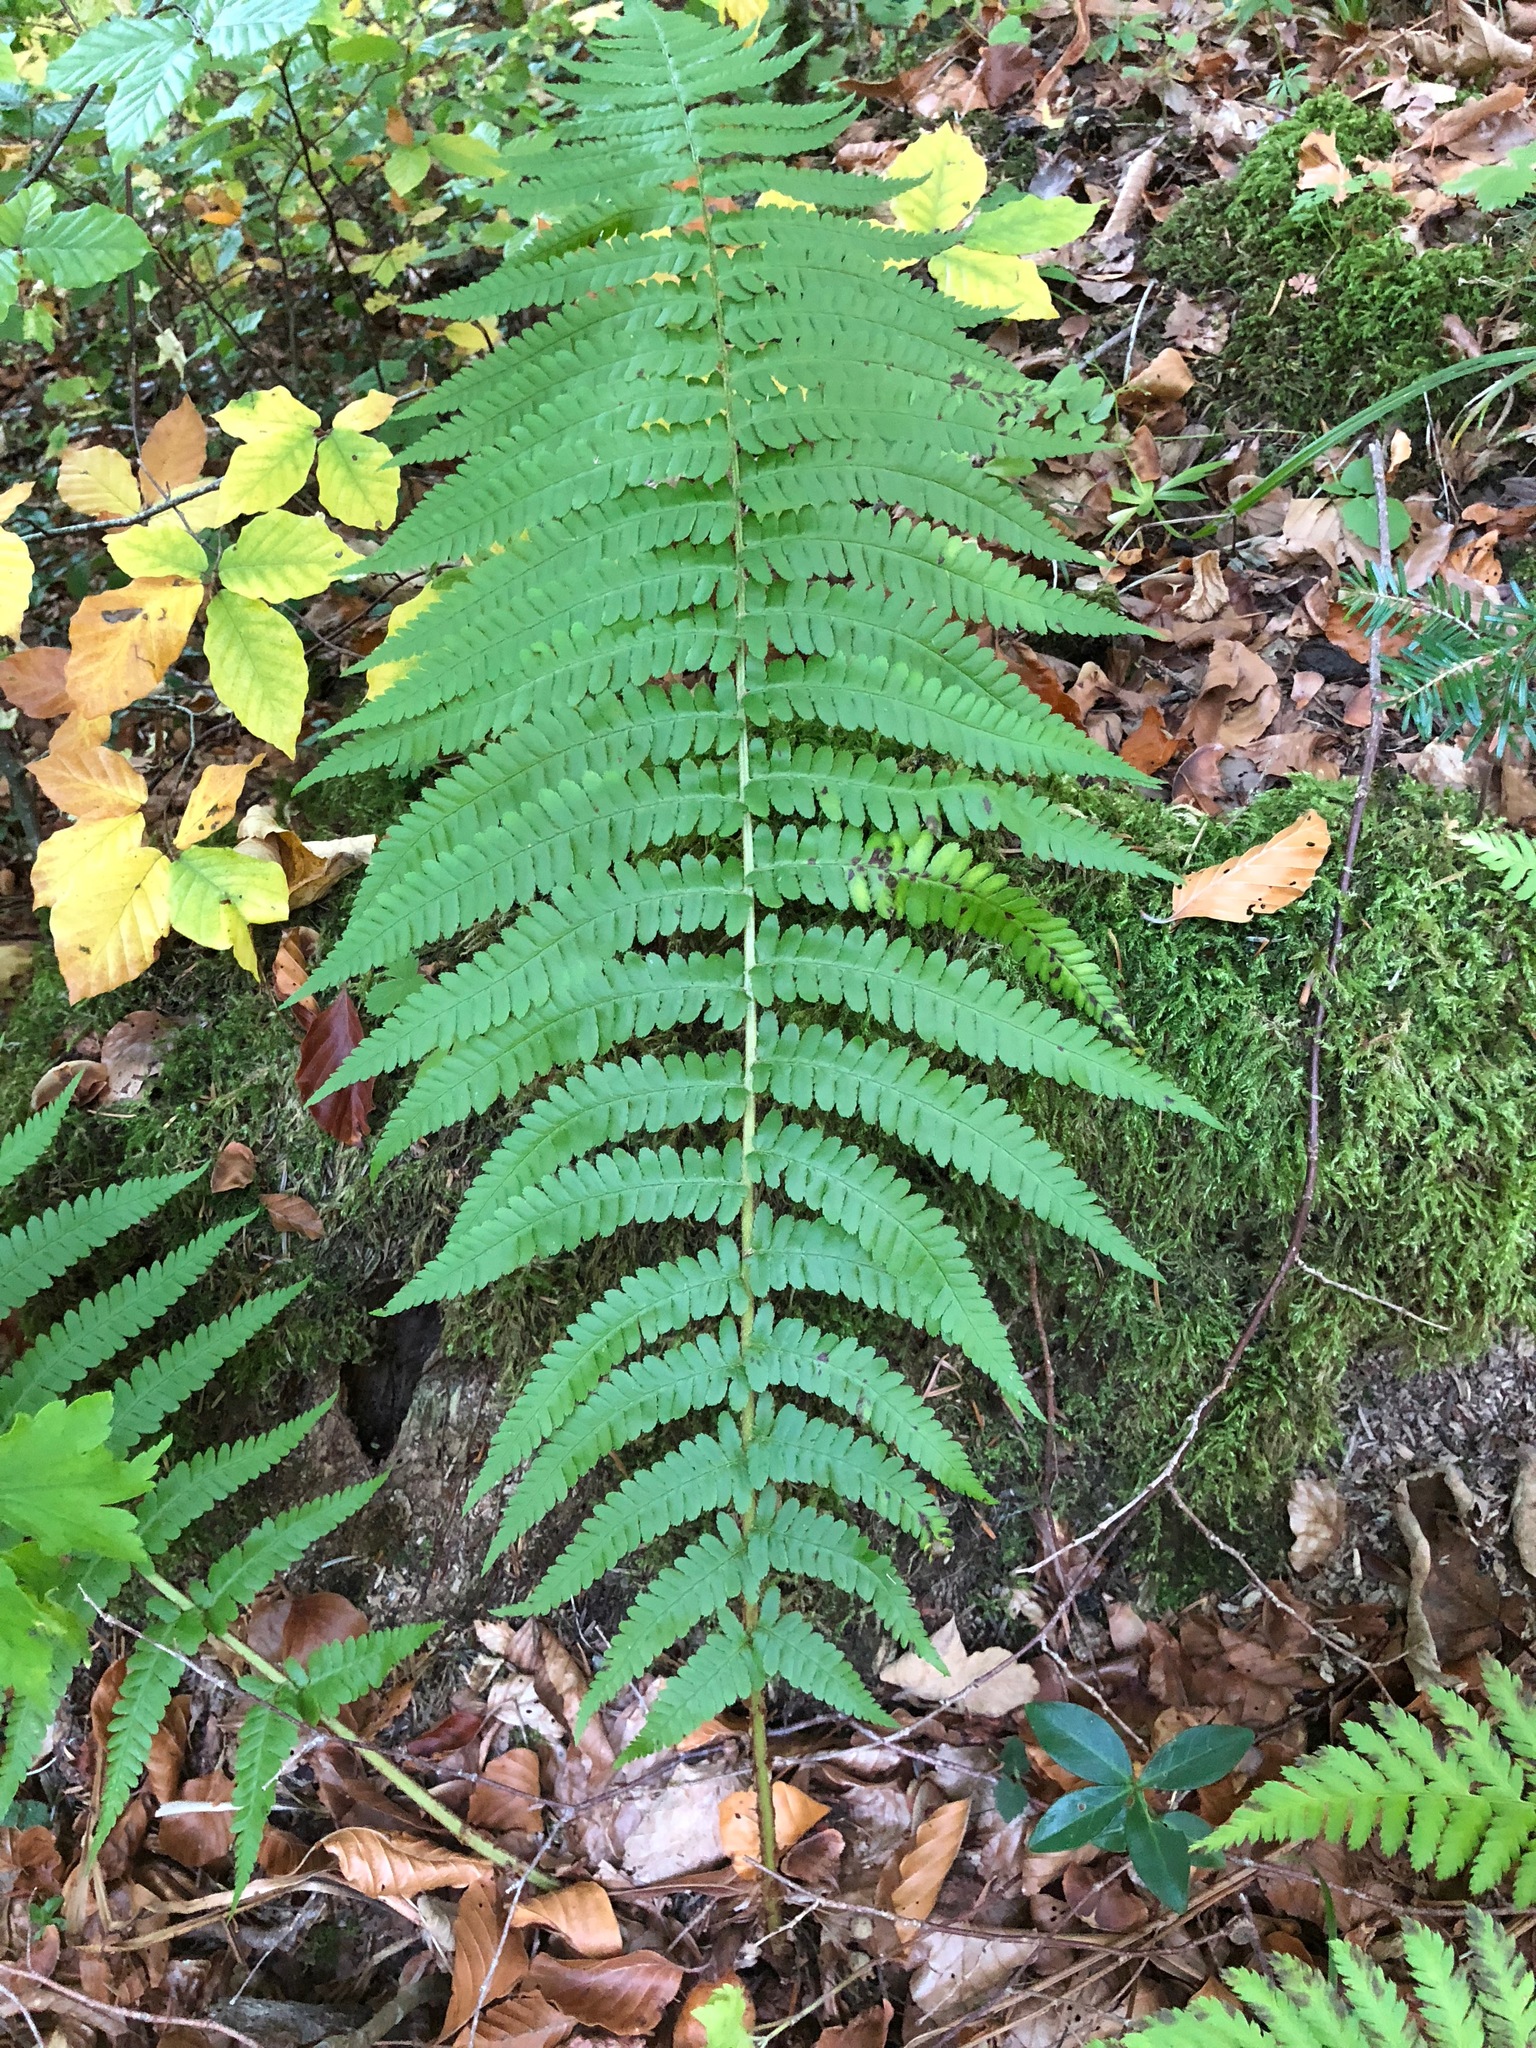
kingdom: Plantae
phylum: Tracheophyta
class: Polypodiopsida
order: Polypodiales
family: Dryopteridaceae
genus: Dryopteris
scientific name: Dryopteris filix-mas
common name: Male fern
